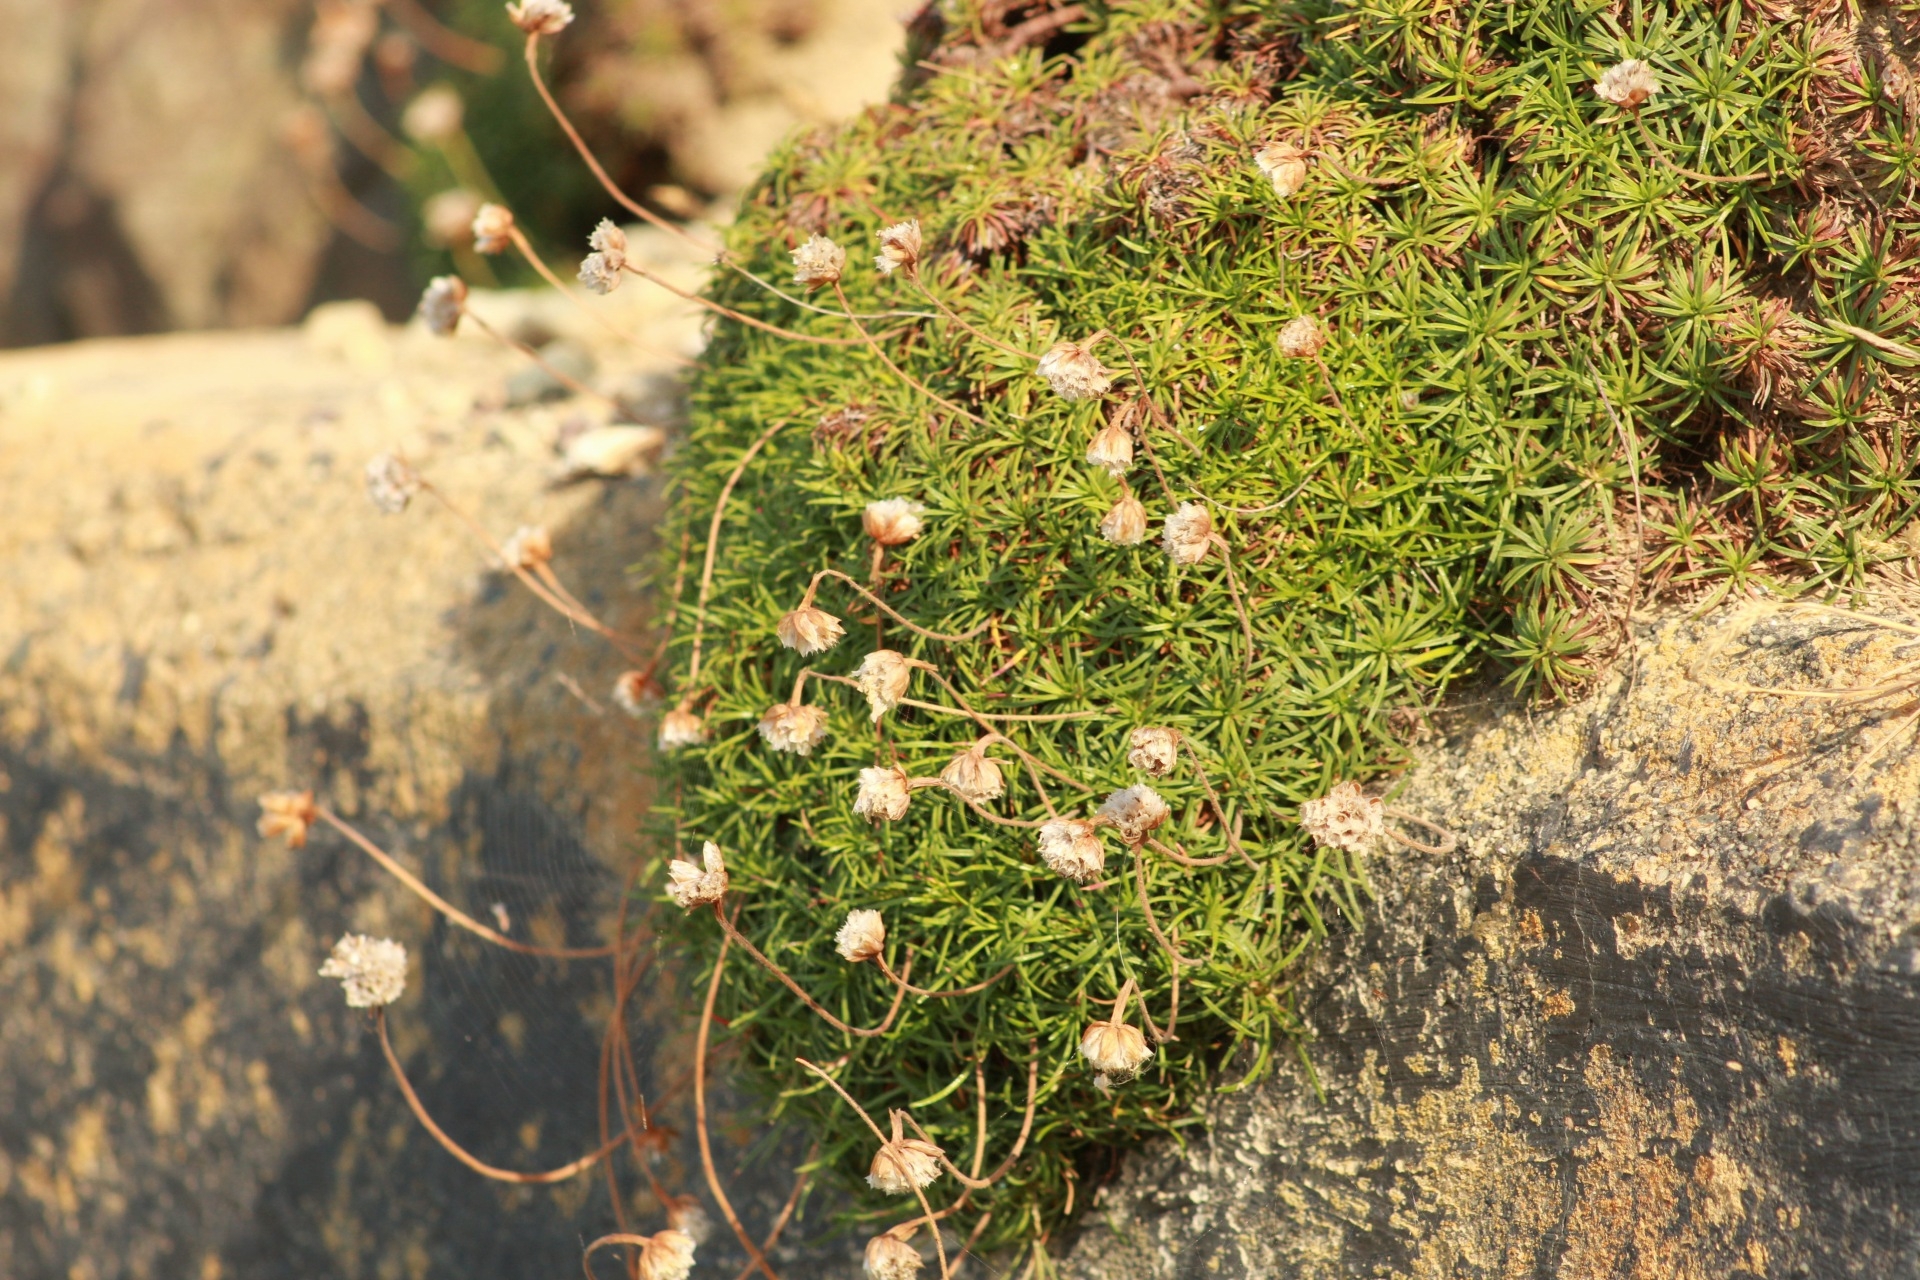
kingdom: Plantae
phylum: Tracheophyta
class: Magnoliopsida
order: Caryophyllales
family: Plumbaginaceae
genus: Armeria
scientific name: Armeria maritima
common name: Thrift
